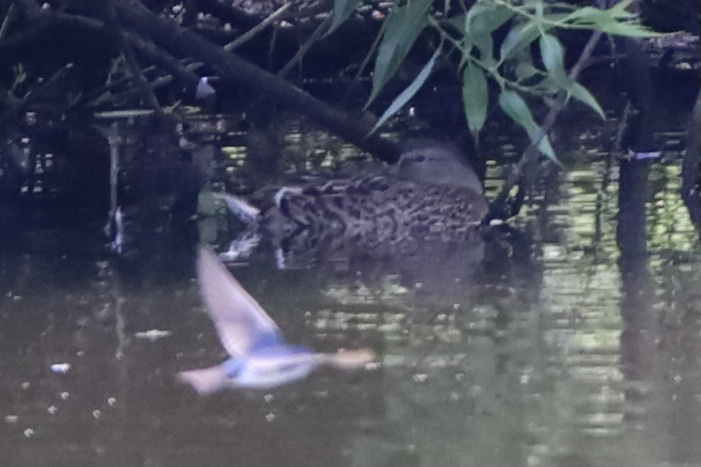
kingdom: Animalia
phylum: Chordata
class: Aves
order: Anseriformes
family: Anatidae
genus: Anas
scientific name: Anas platyrhynchos
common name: Mallard
